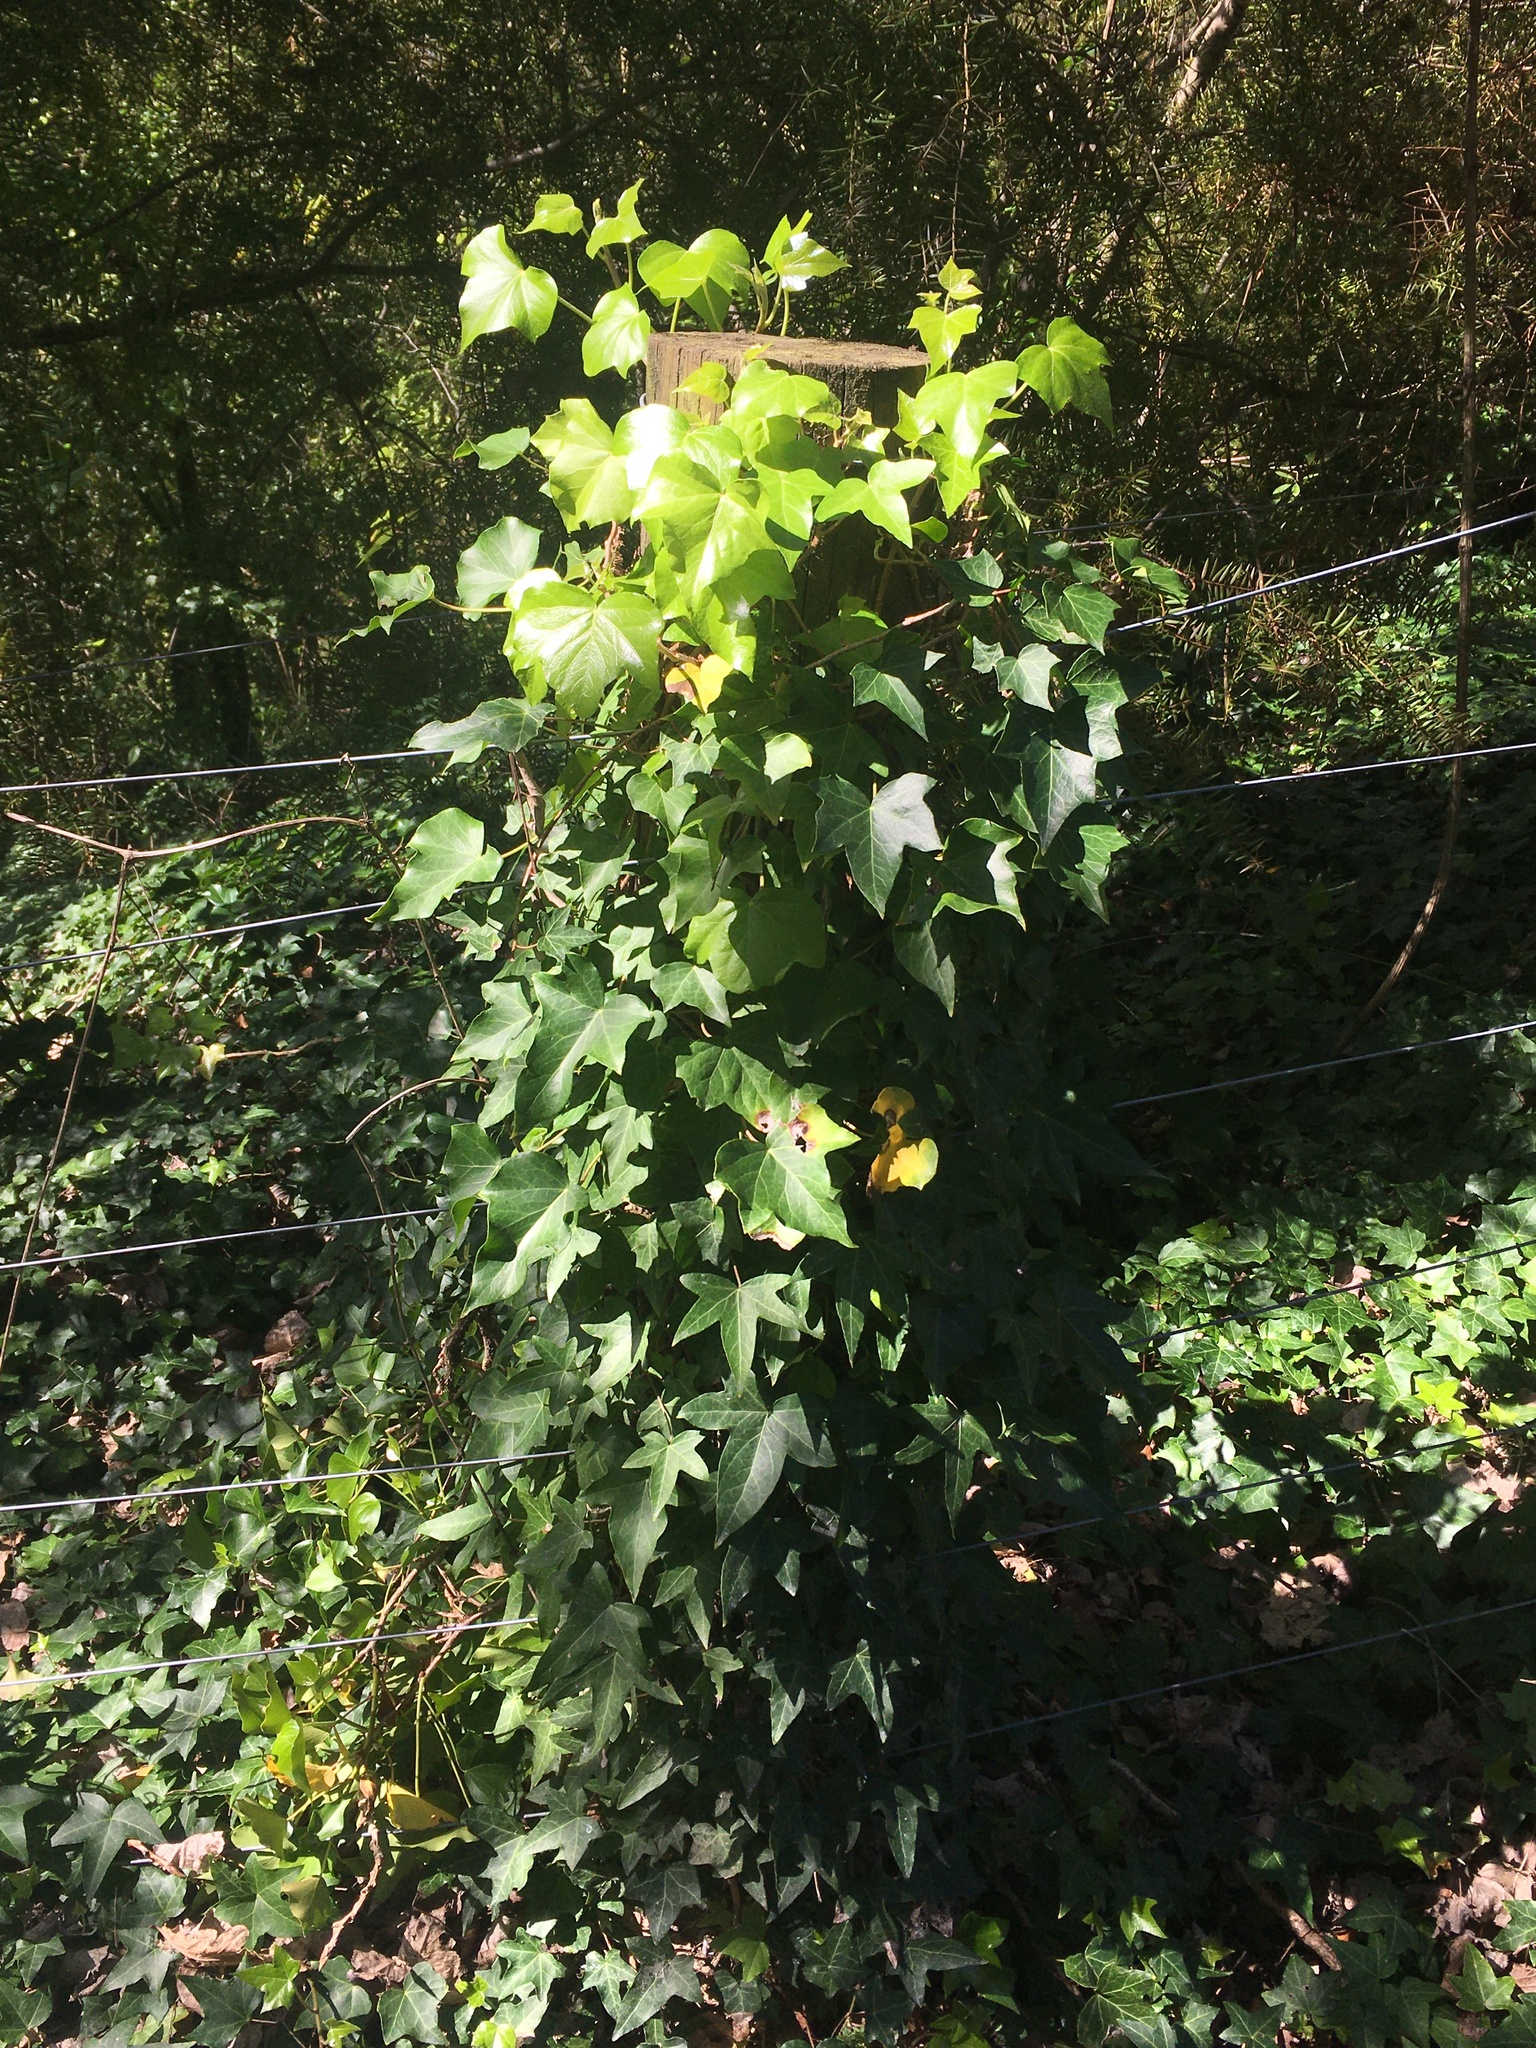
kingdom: Plantae
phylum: Tracheophyta
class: Magnoliopsida
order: Apiales
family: Araliaceae
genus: Hedera
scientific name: Hedera helix
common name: Ivy
